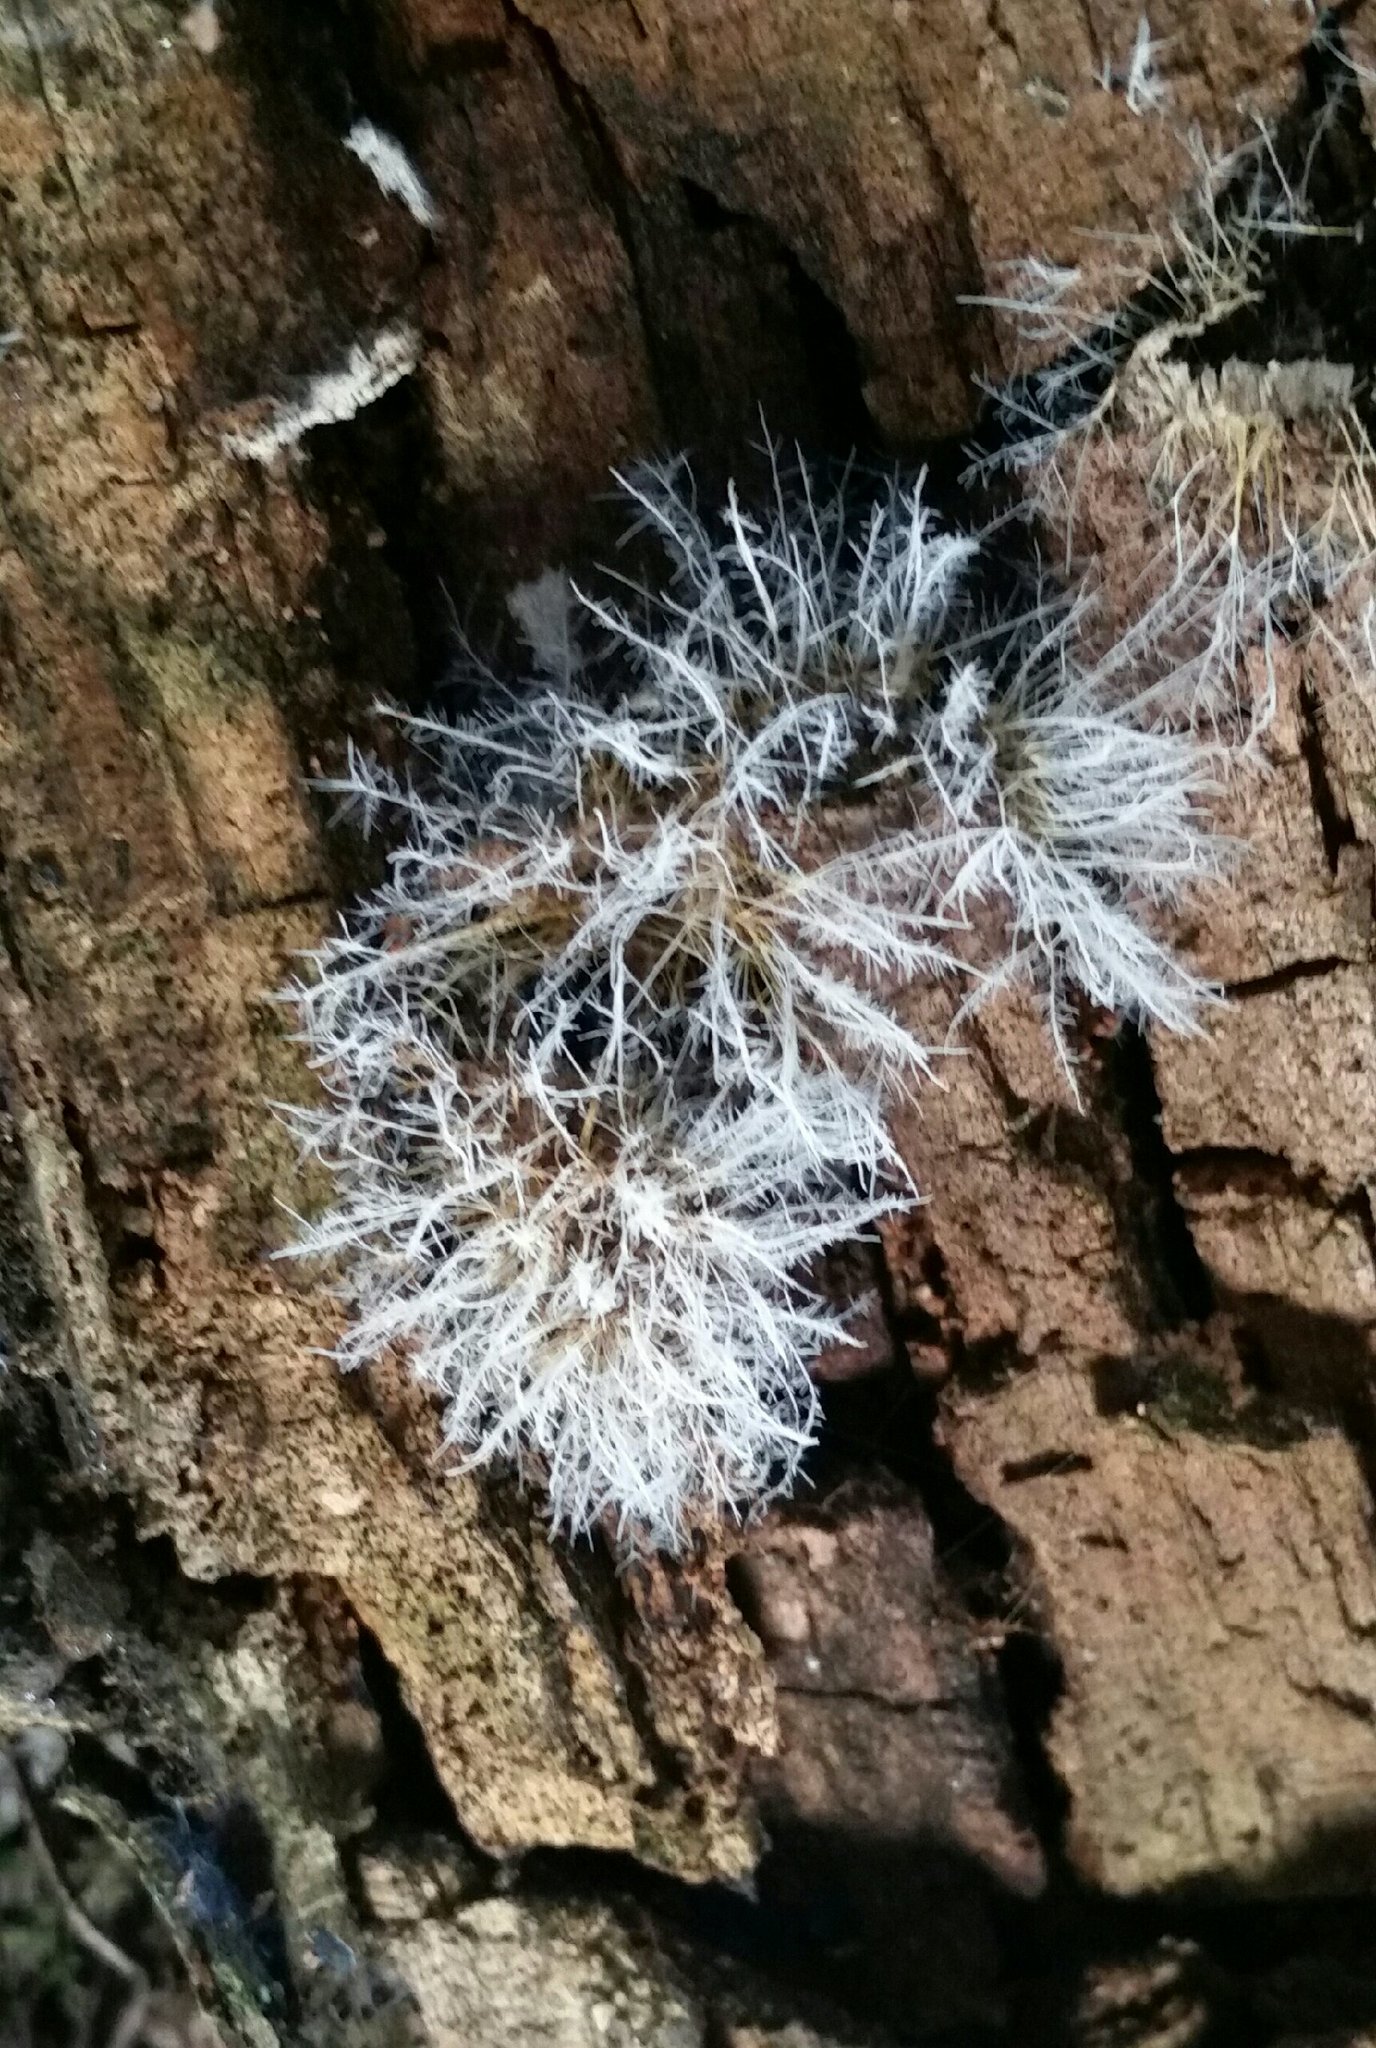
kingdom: Fungi
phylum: Ascomycota
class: Sordariomycetes
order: Hypocreales
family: Tilachlidiaceae
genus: Tilachlidium
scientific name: Tilachlidium brachiatum
